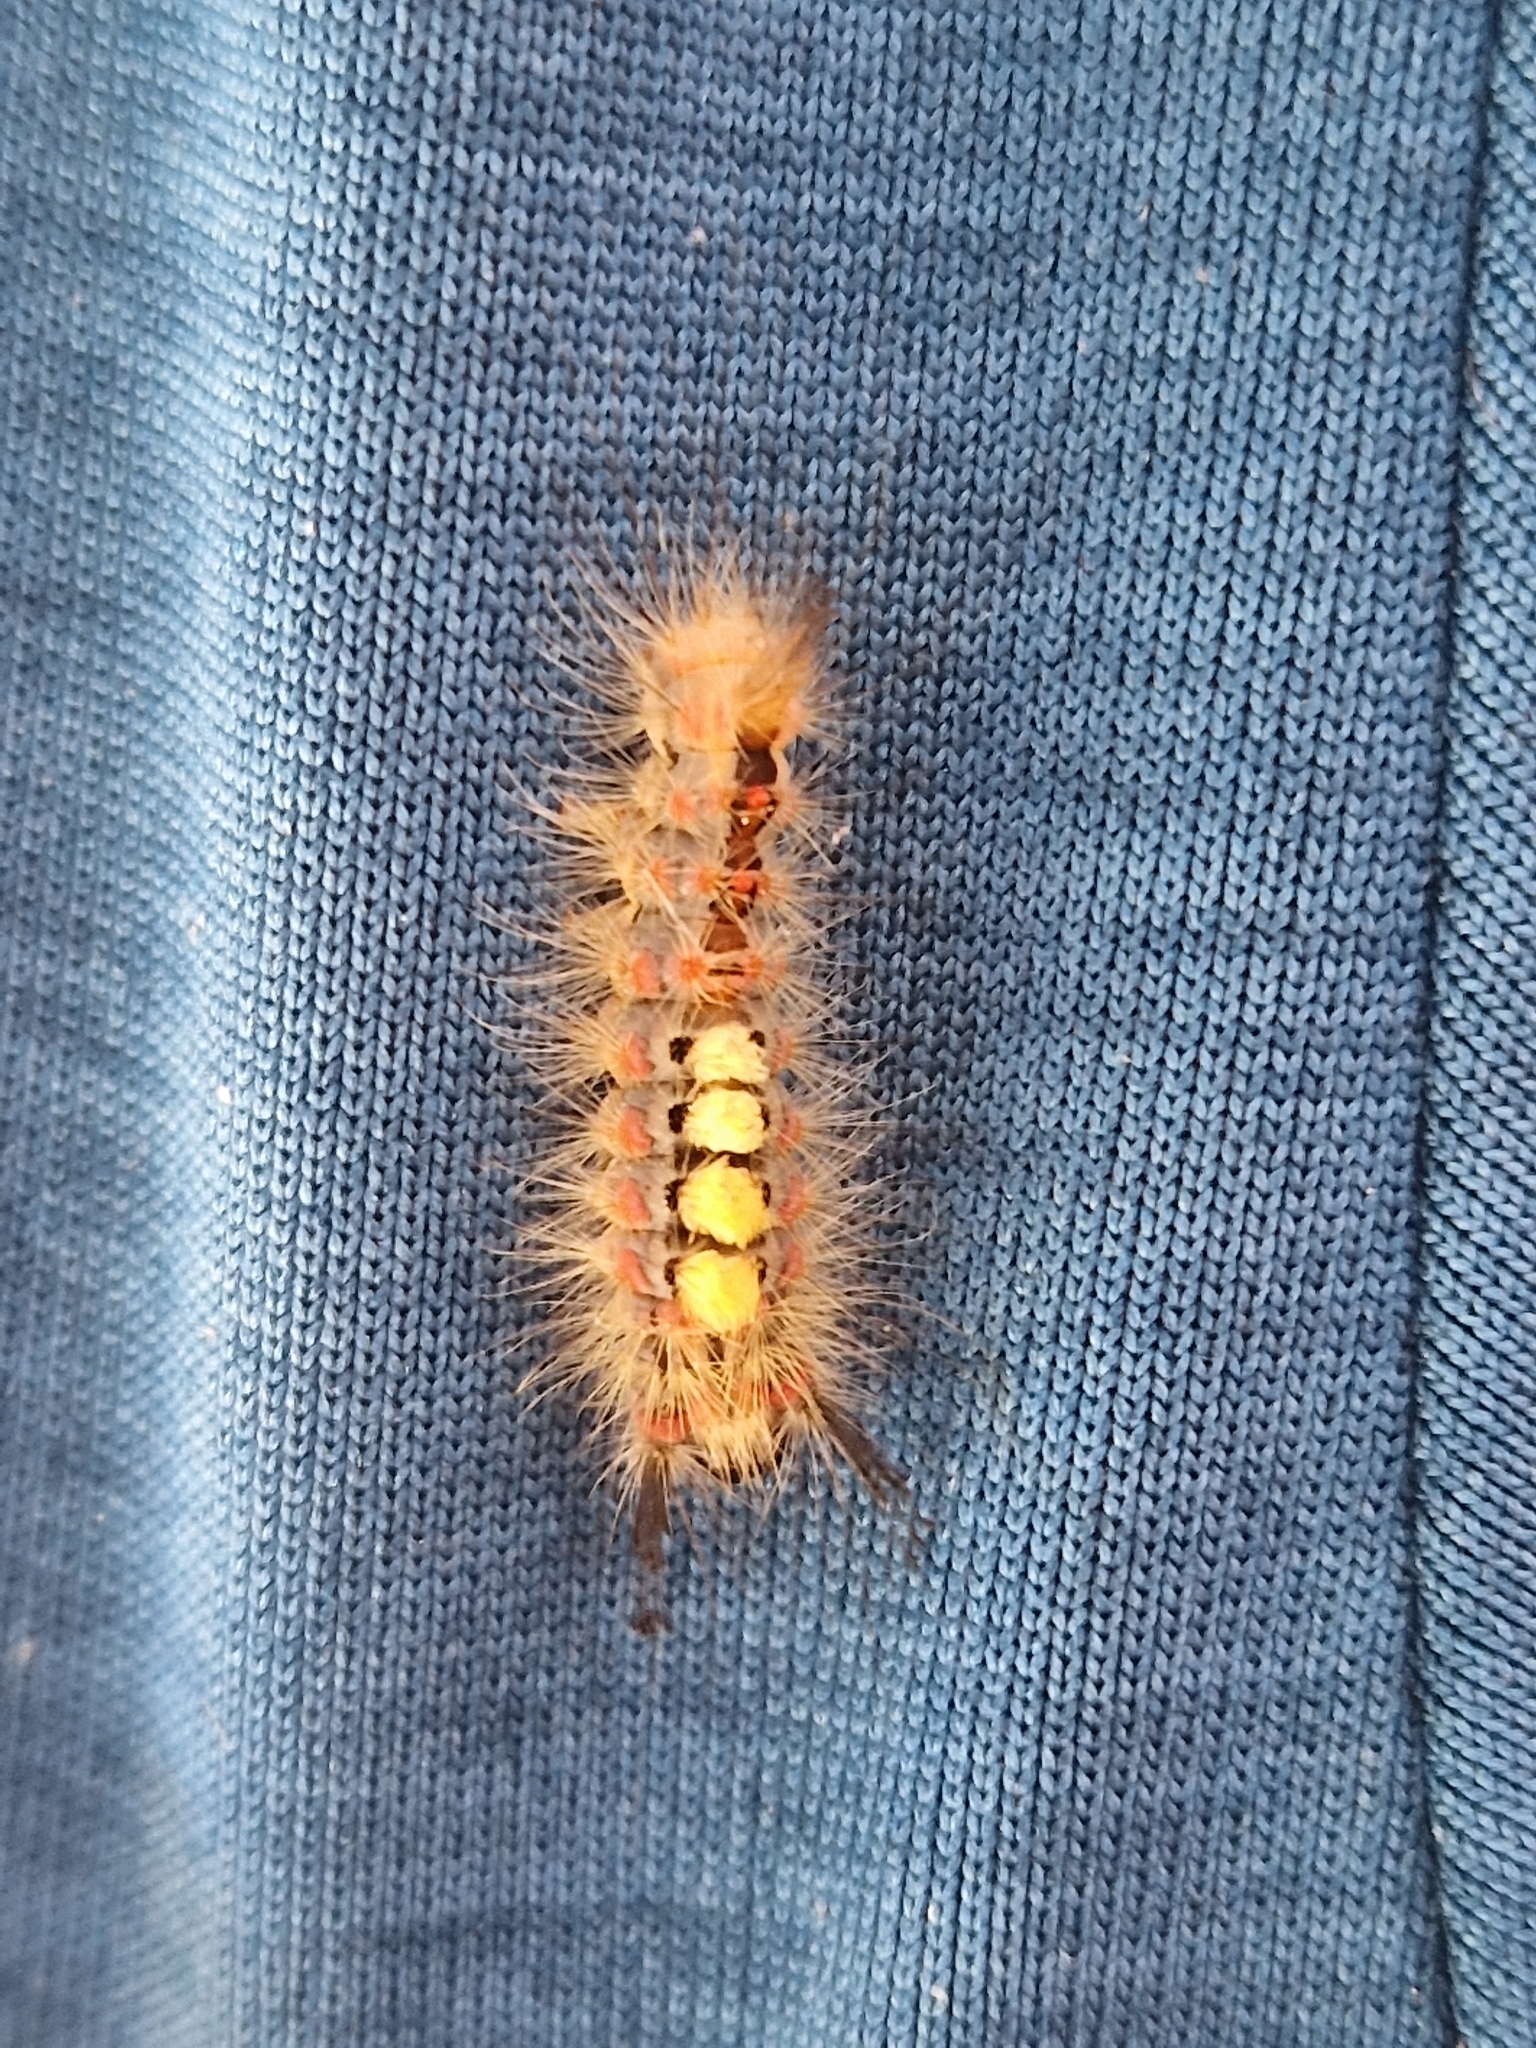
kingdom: Animalia
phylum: Arthropoda
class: Insecta
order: Lepidoptera
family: Erebidae
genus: Orgyia
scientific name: Orgyia antiqua
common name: Vapourer
